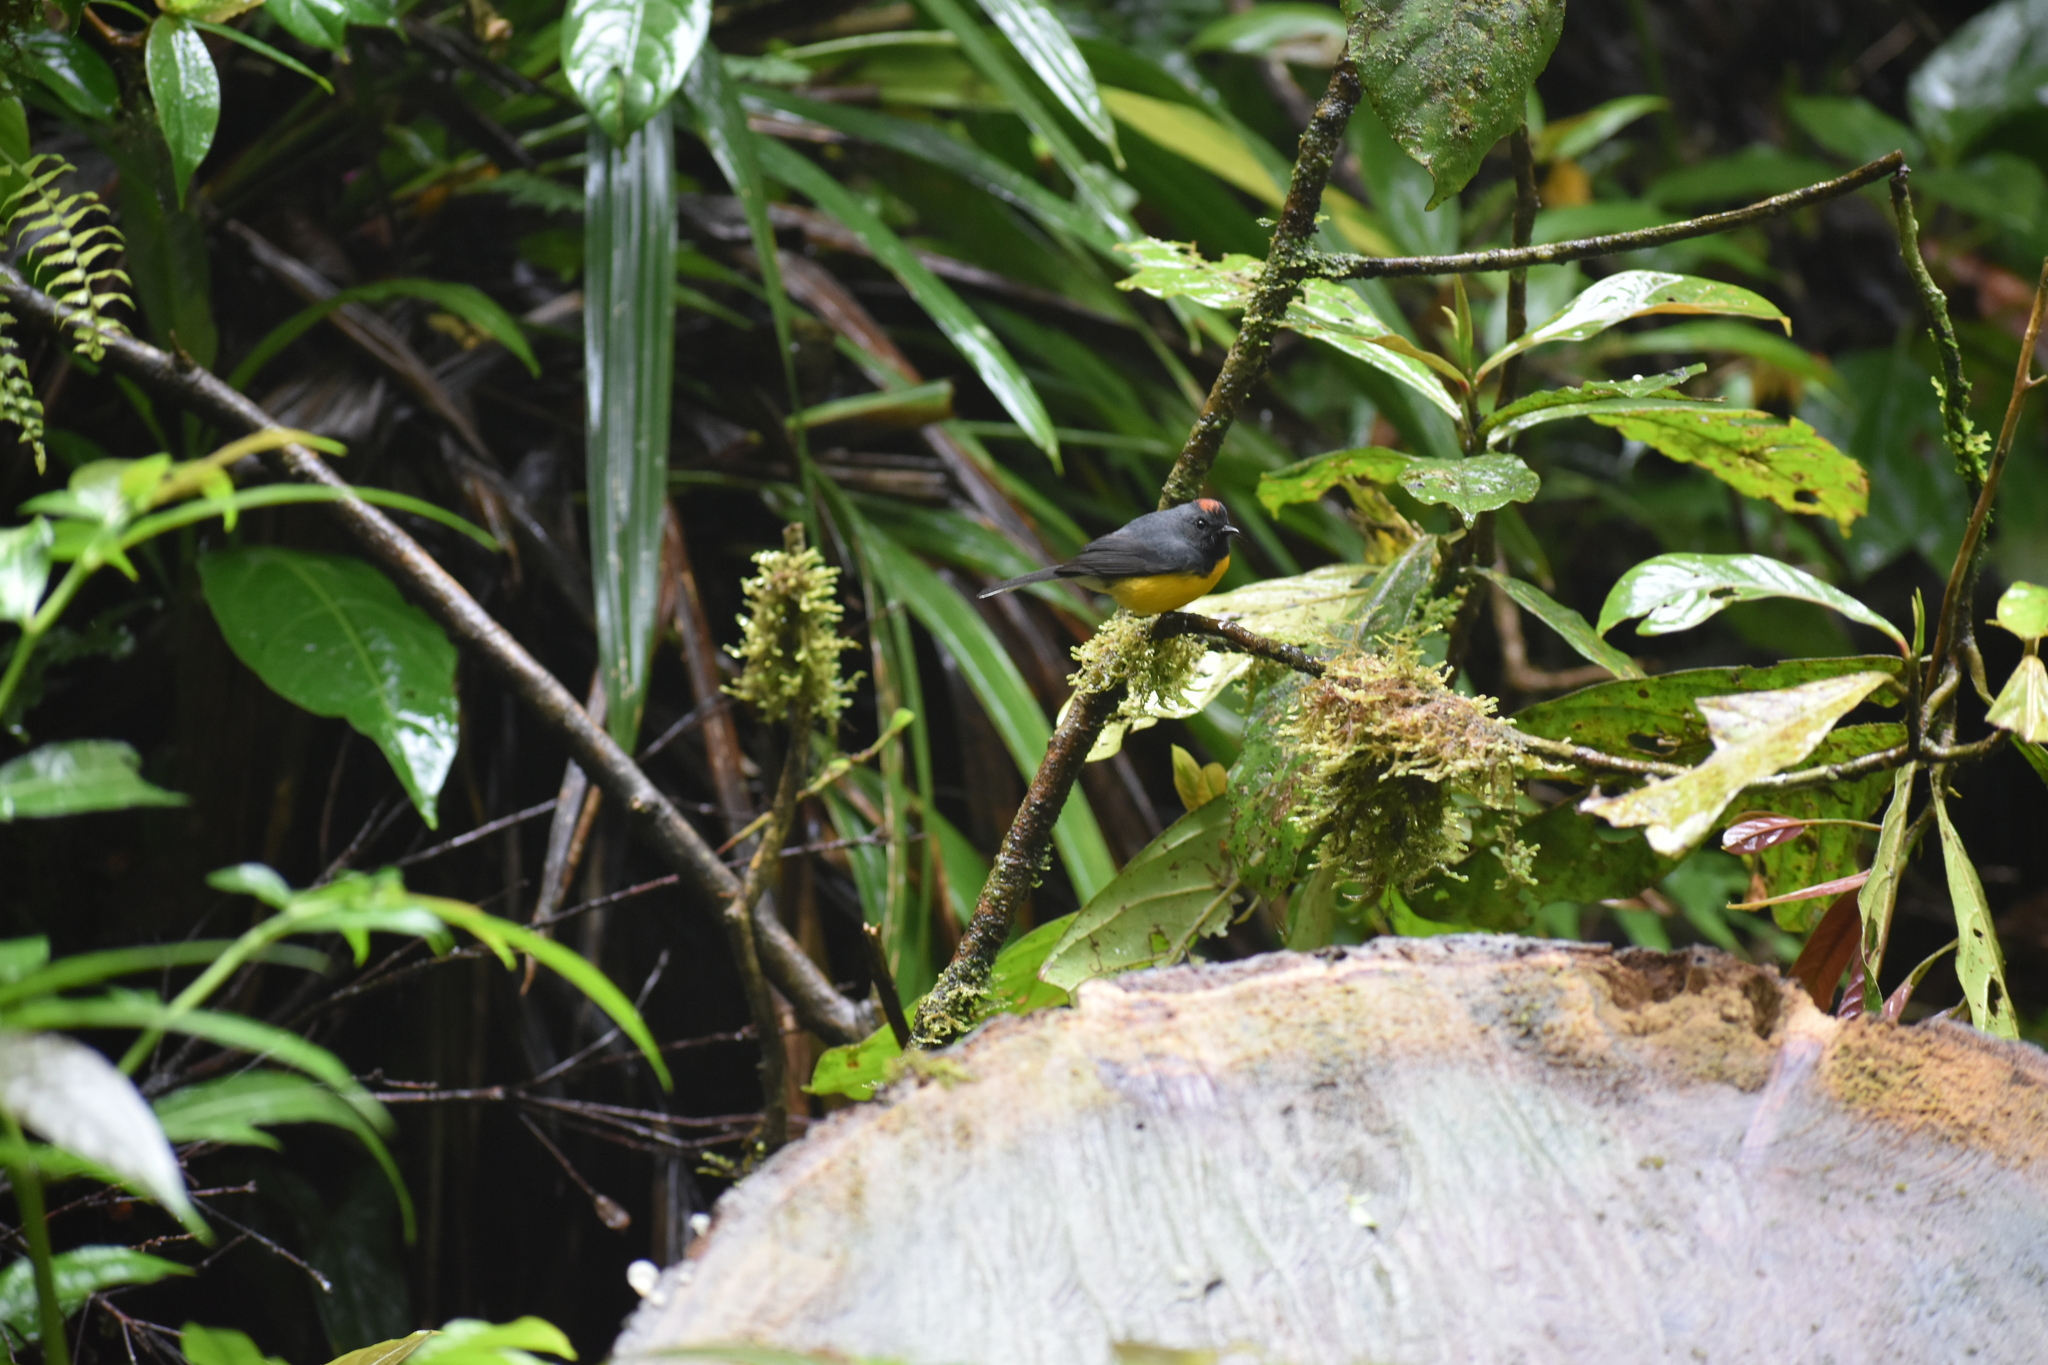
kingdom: Animalia
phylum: Chordata
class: Aves
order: Passeriformes
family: Parulidae
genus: Myioborus
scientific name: Myioborus miniatus
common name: Slate-throated redstart
